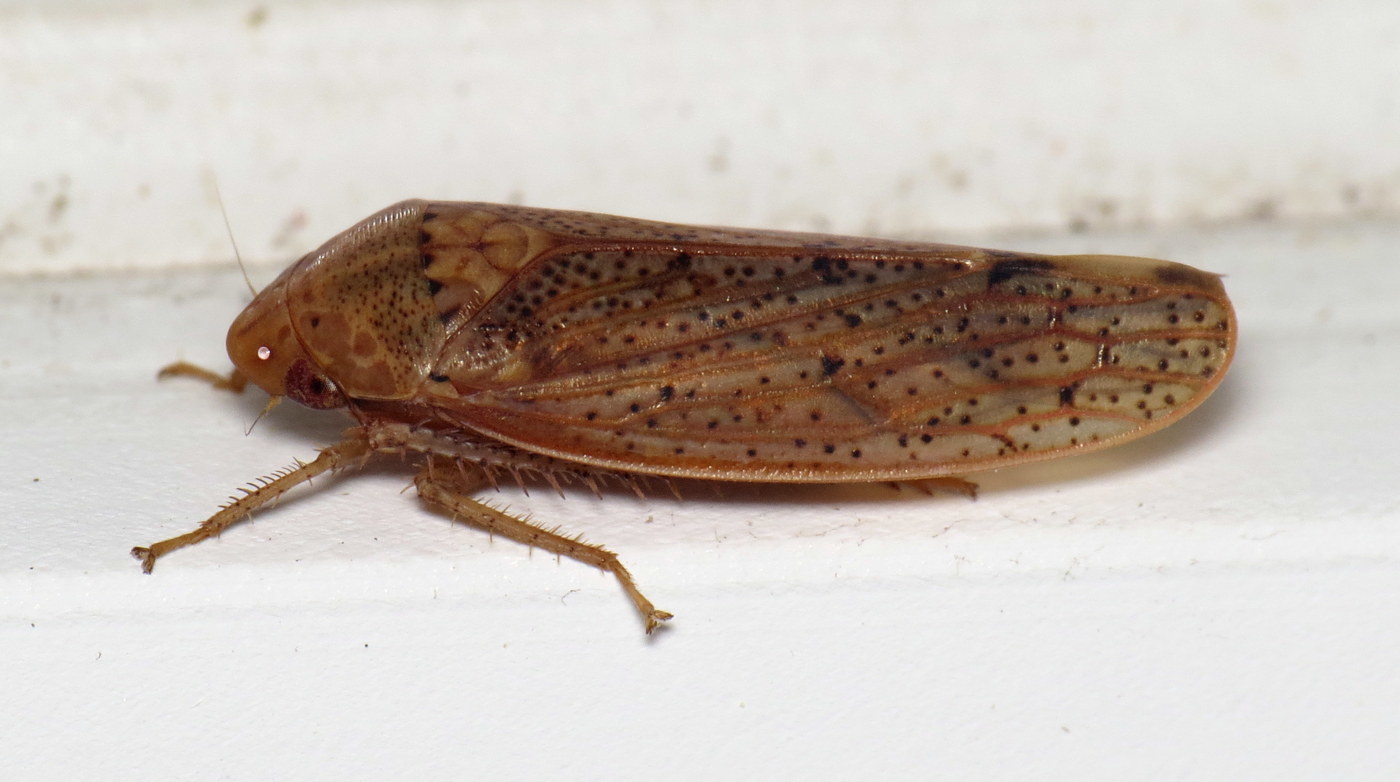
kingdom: Animalia
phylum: Arthropoda
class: Insecta
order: Hemiptera
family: Cicadellidae
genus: Ponana
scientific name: Ponana puncticollis
